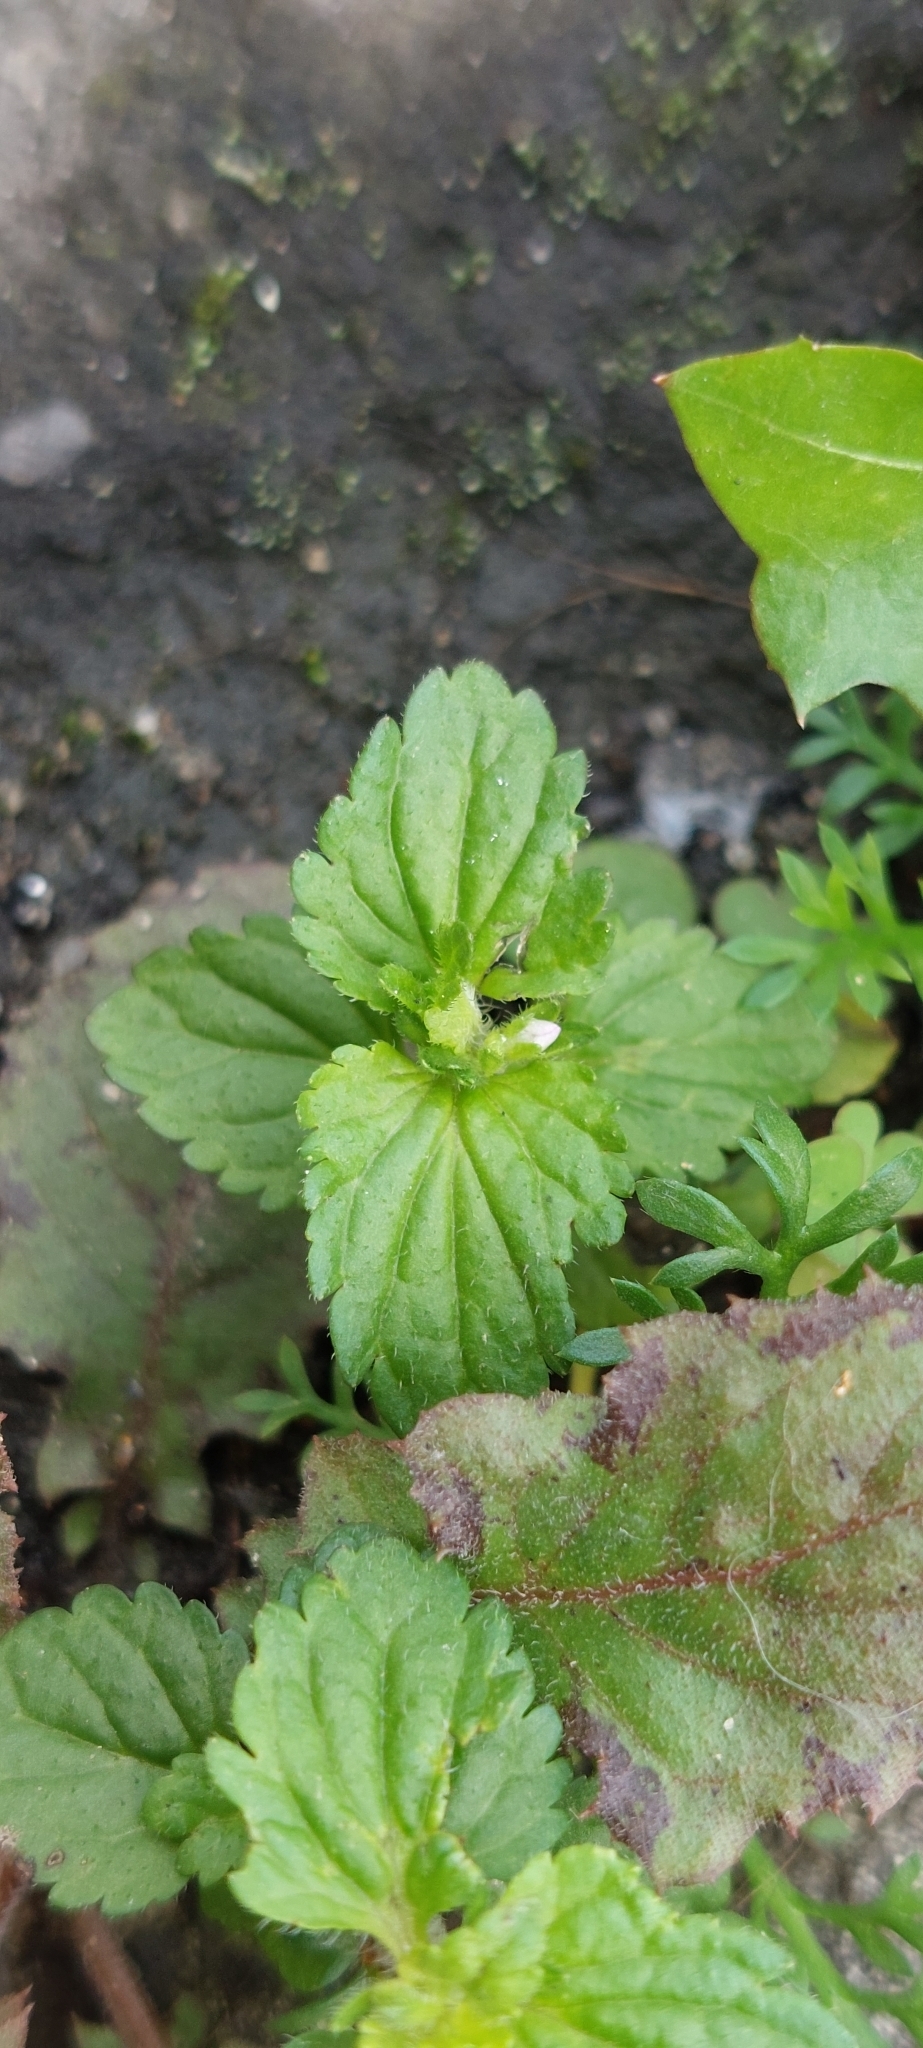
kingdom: Plantae
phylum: Tracheophyta
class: Magnoliopsida
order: Lamiales
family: Plantaginaceae
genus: Veronica
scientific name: Veronica javanica
